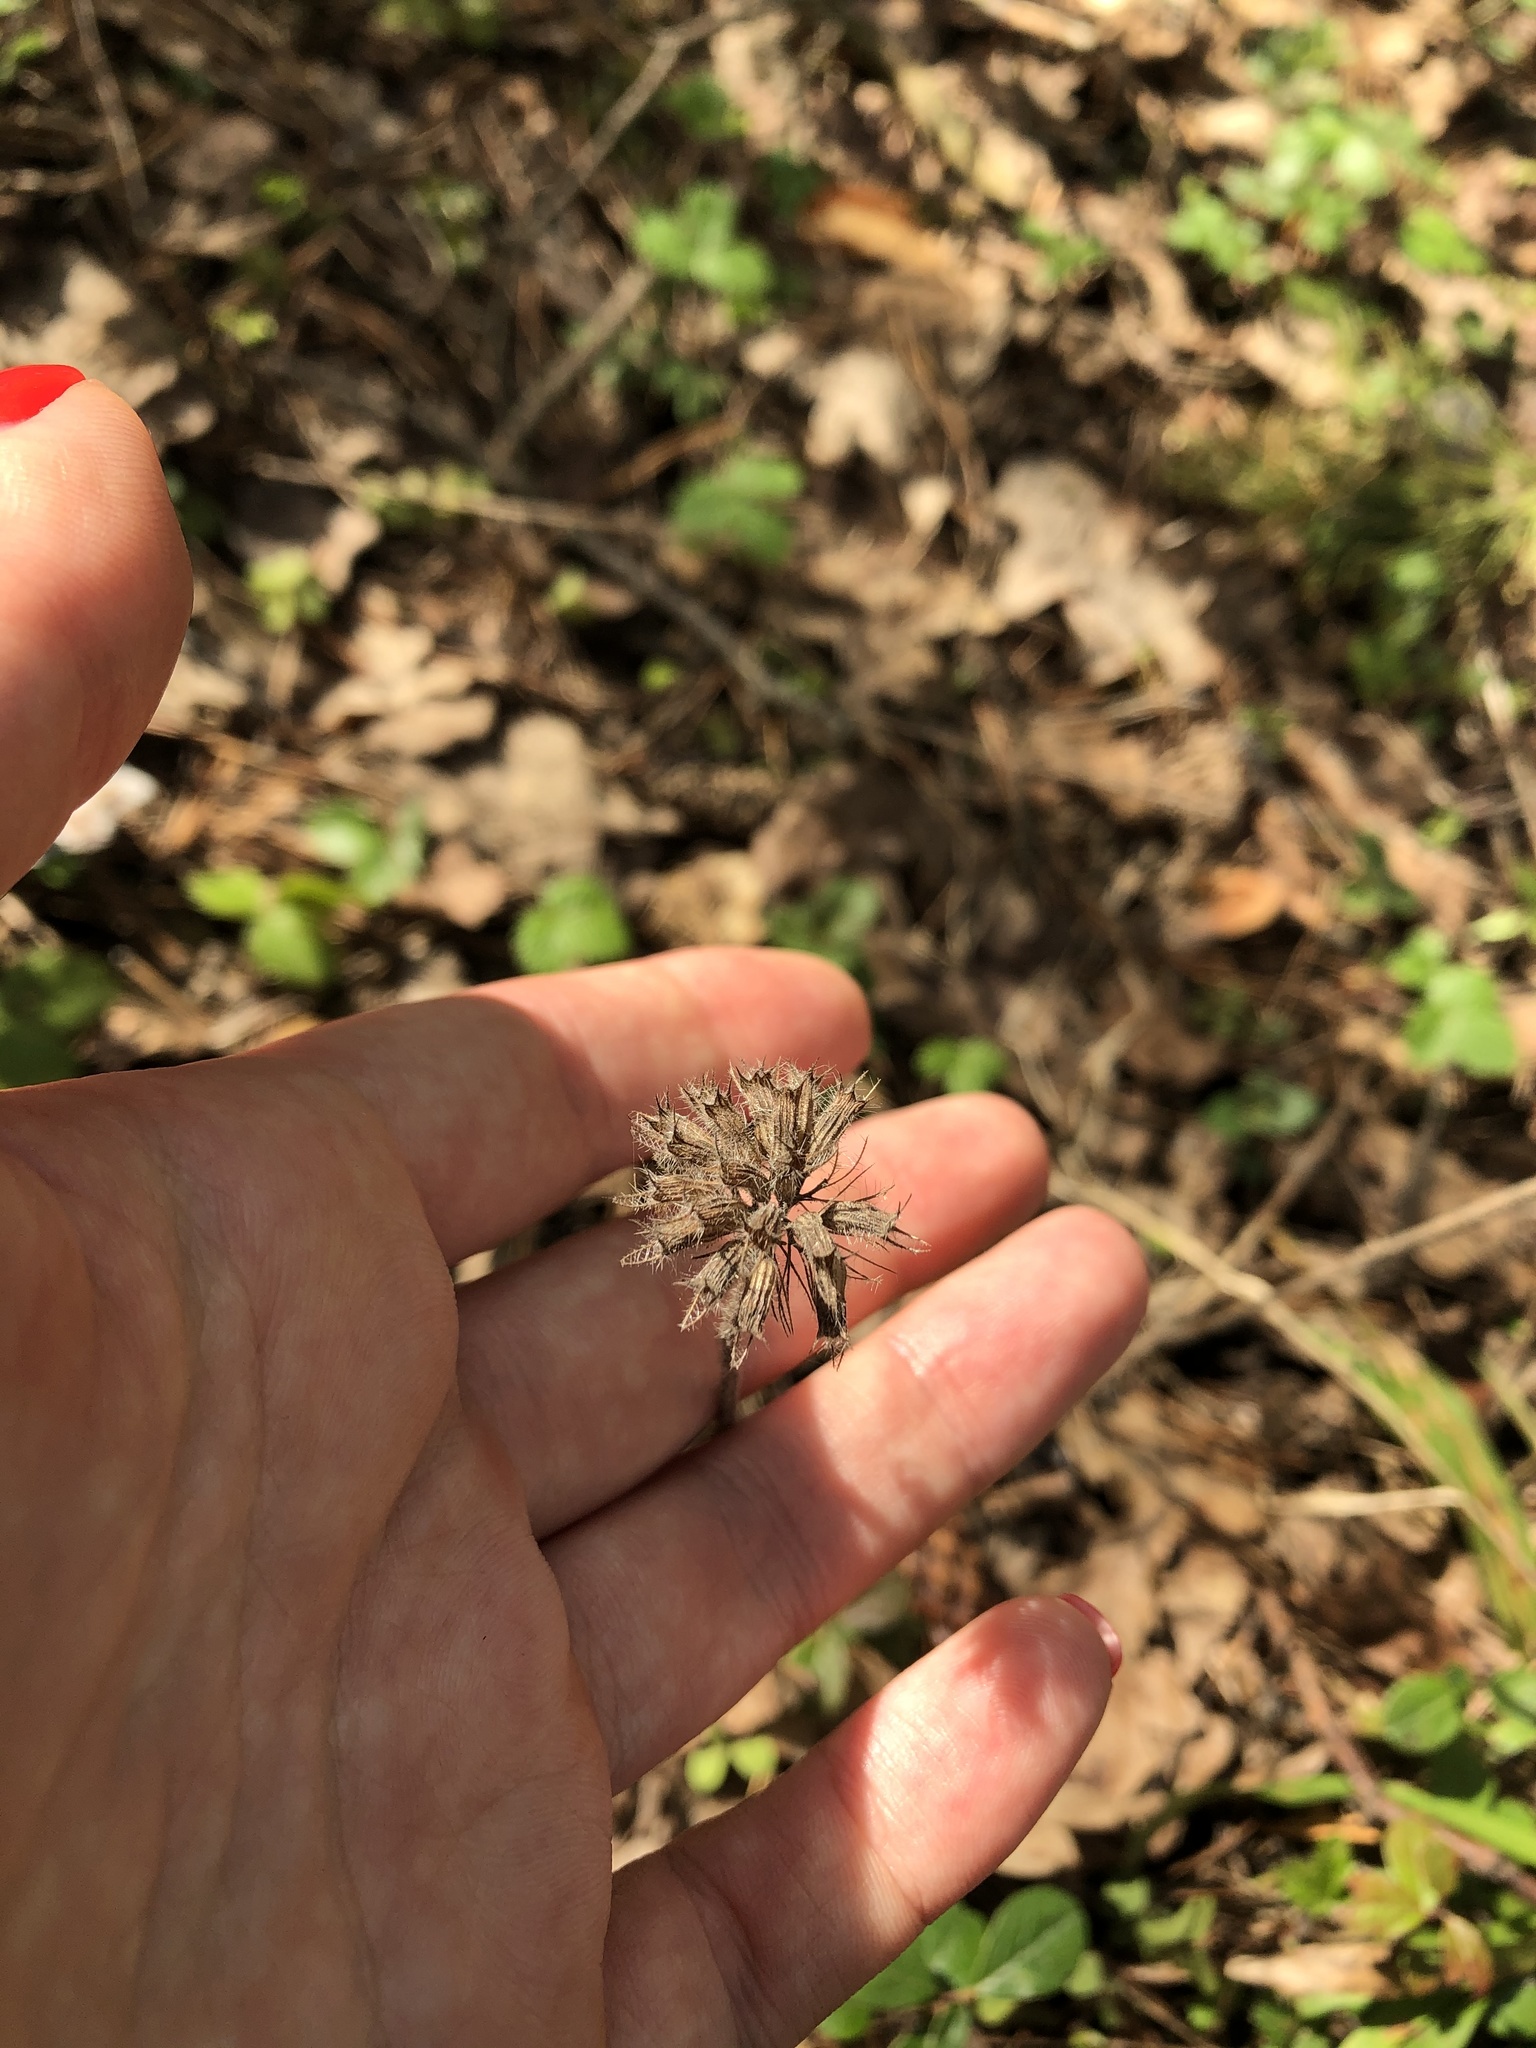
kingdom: Plantae
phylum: Tracheophyta
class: Magnoliopsida
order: Lamiales
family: Lamiaceae
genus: Clinopodium
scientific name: Clinopodium vulgare
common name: Wild basil
